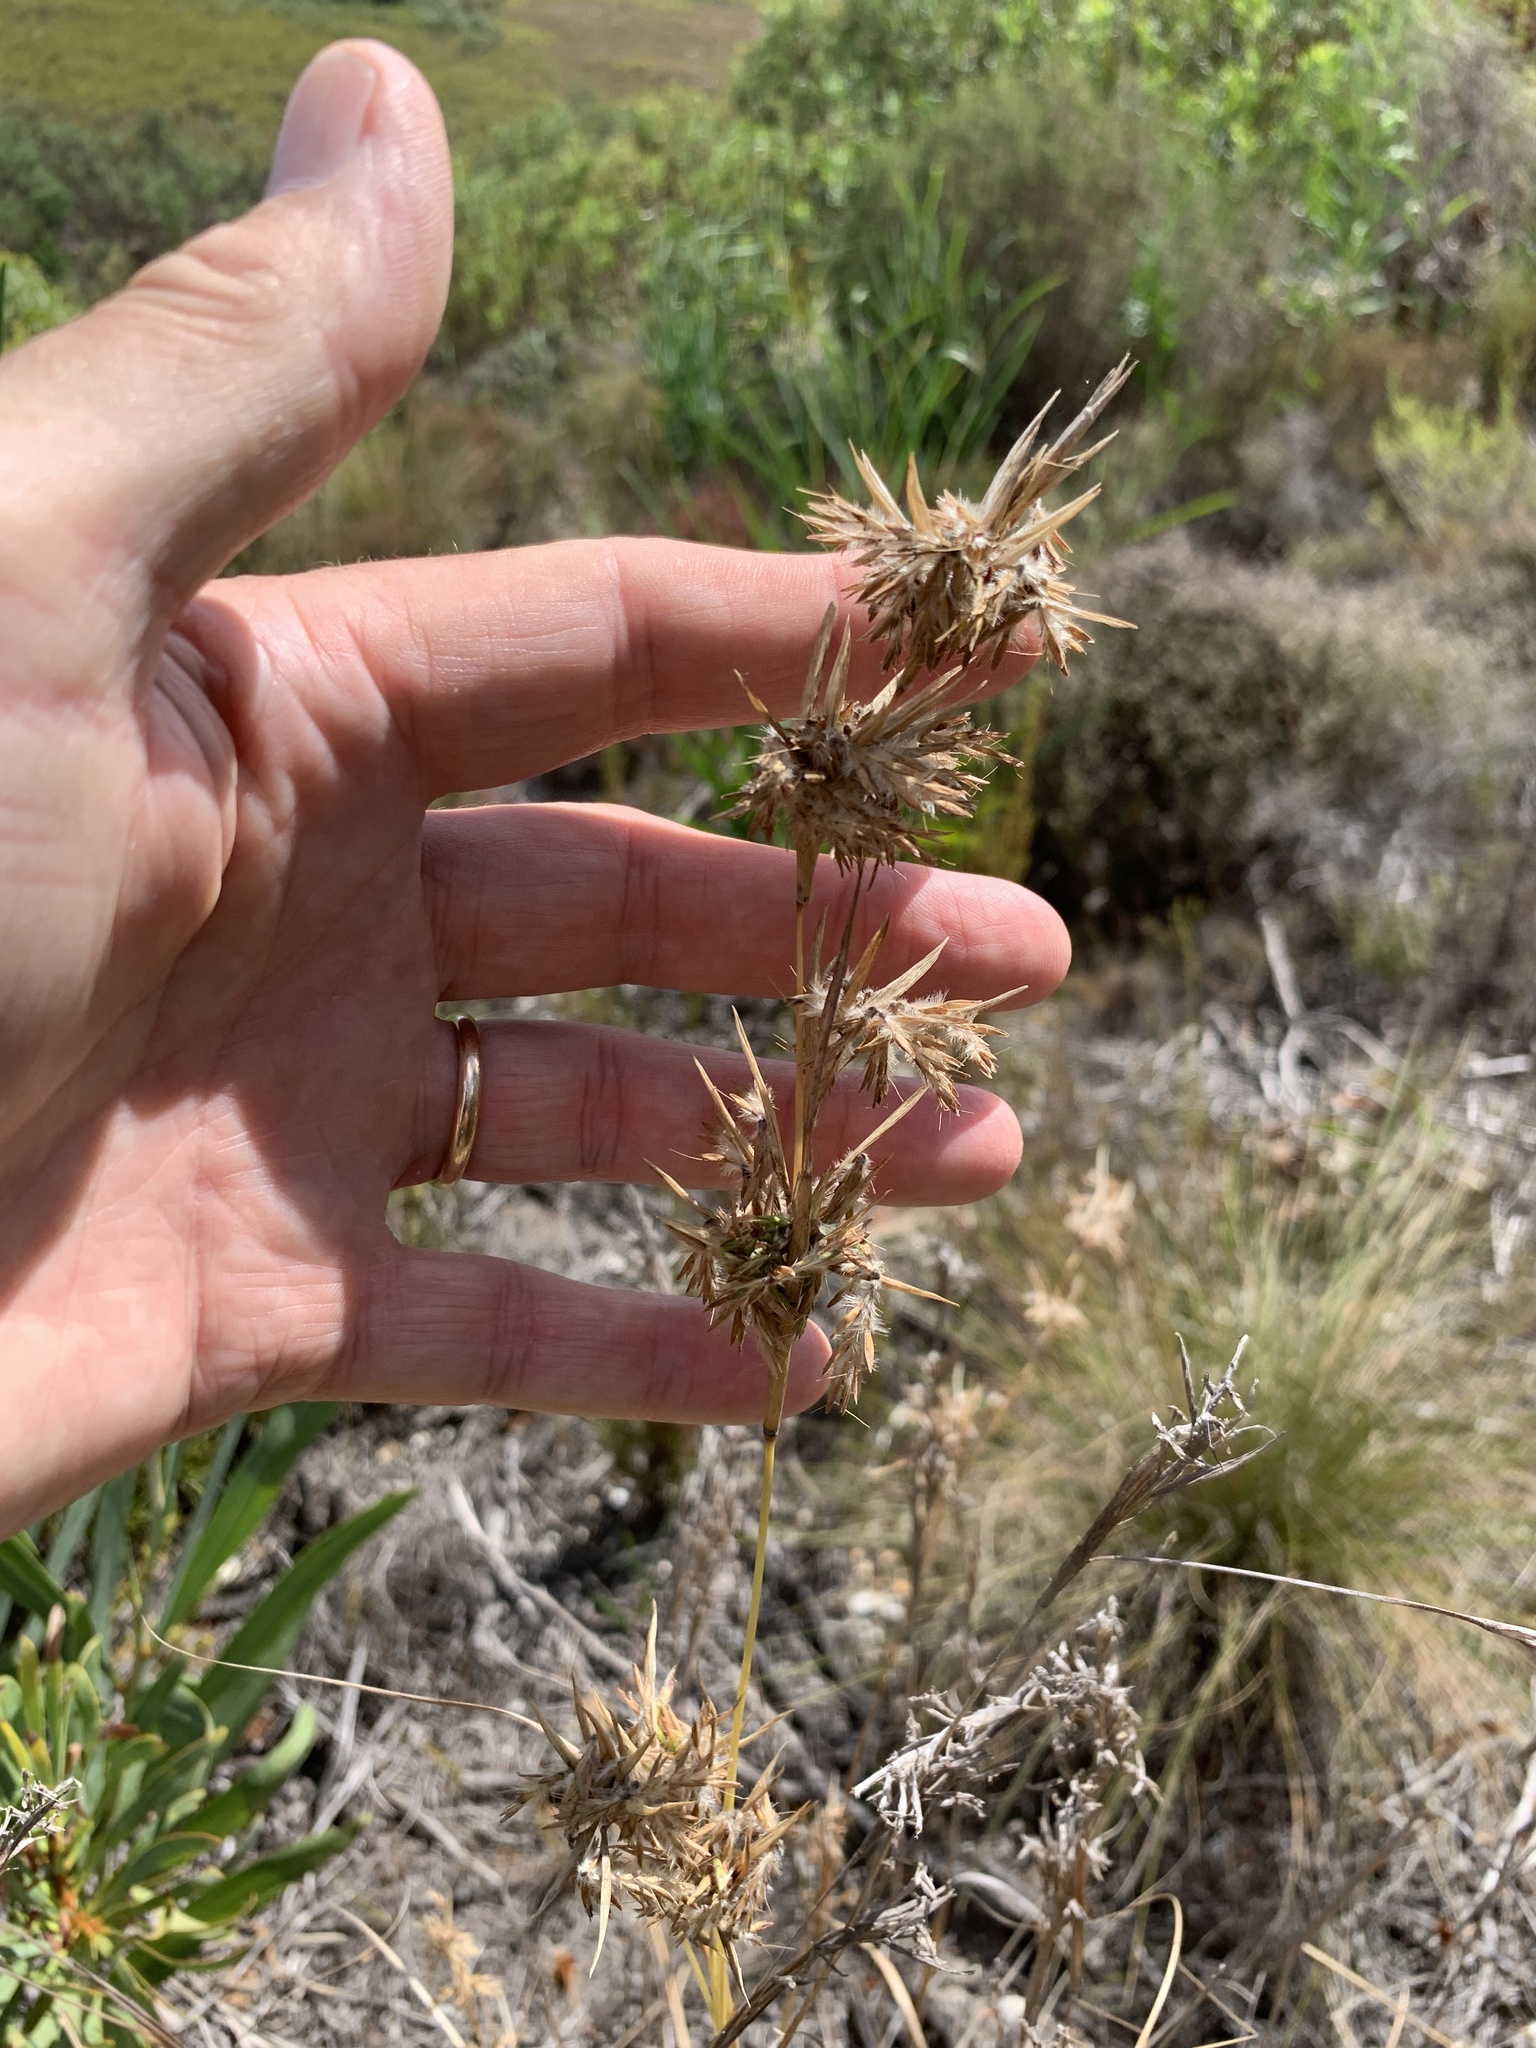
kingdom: Plantae
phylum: Tracheophyta
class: Liliopsida
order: Poales
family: Poaceae
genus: Cymbopogon
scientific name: Cymbopogon marginatus
